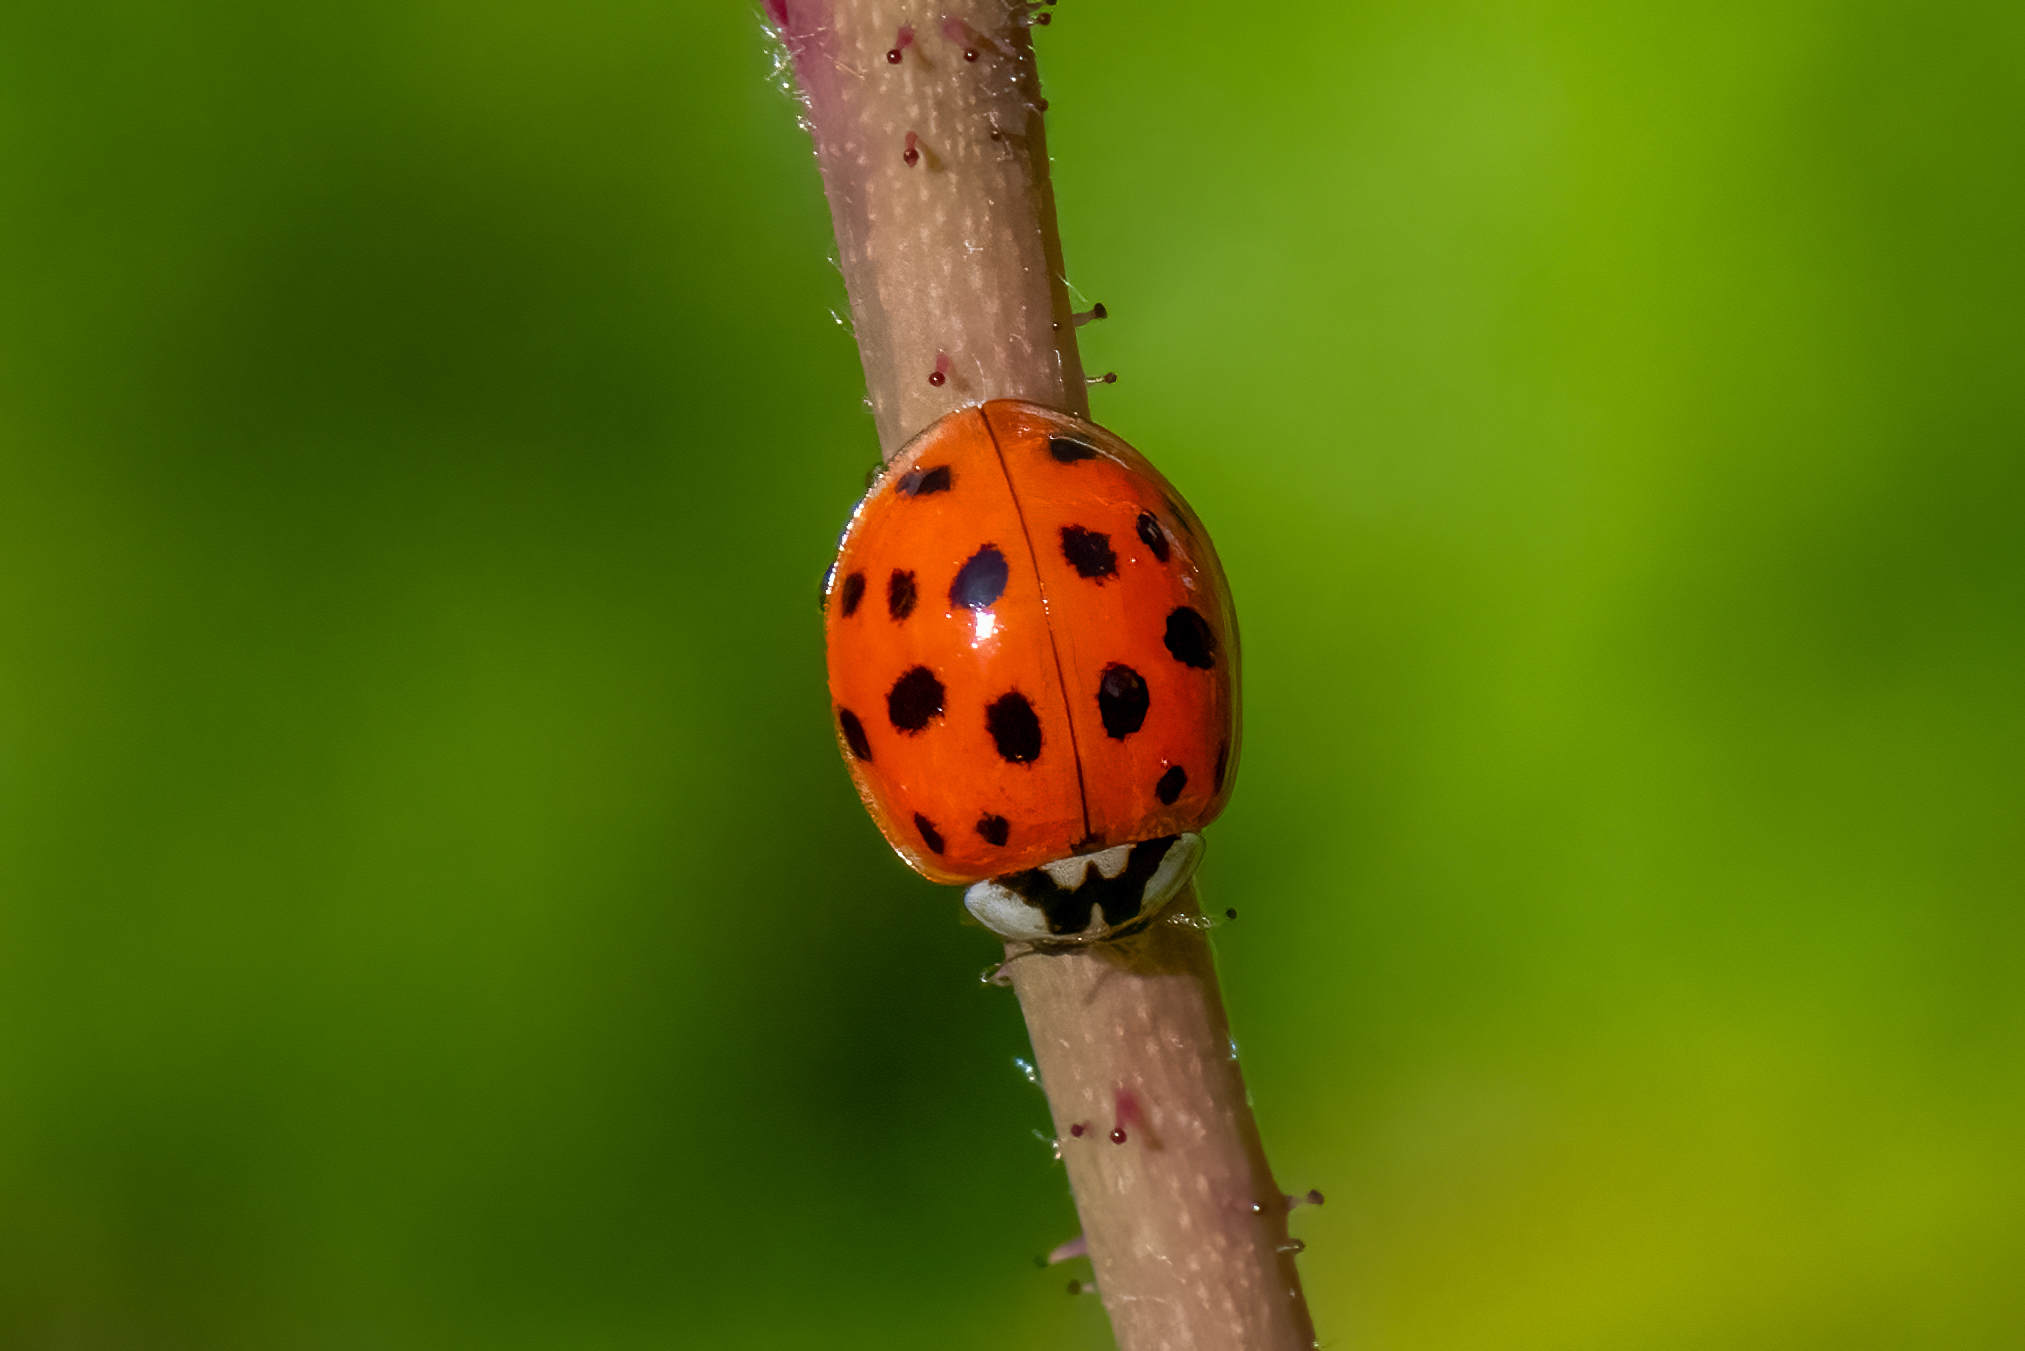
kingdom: Animalia
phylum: Arthropoda
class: Insecta
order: Coleoptera
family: Coccinellidae
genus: Harmonia
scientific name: Harmonia axyridis
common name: Harlequin ladybird
